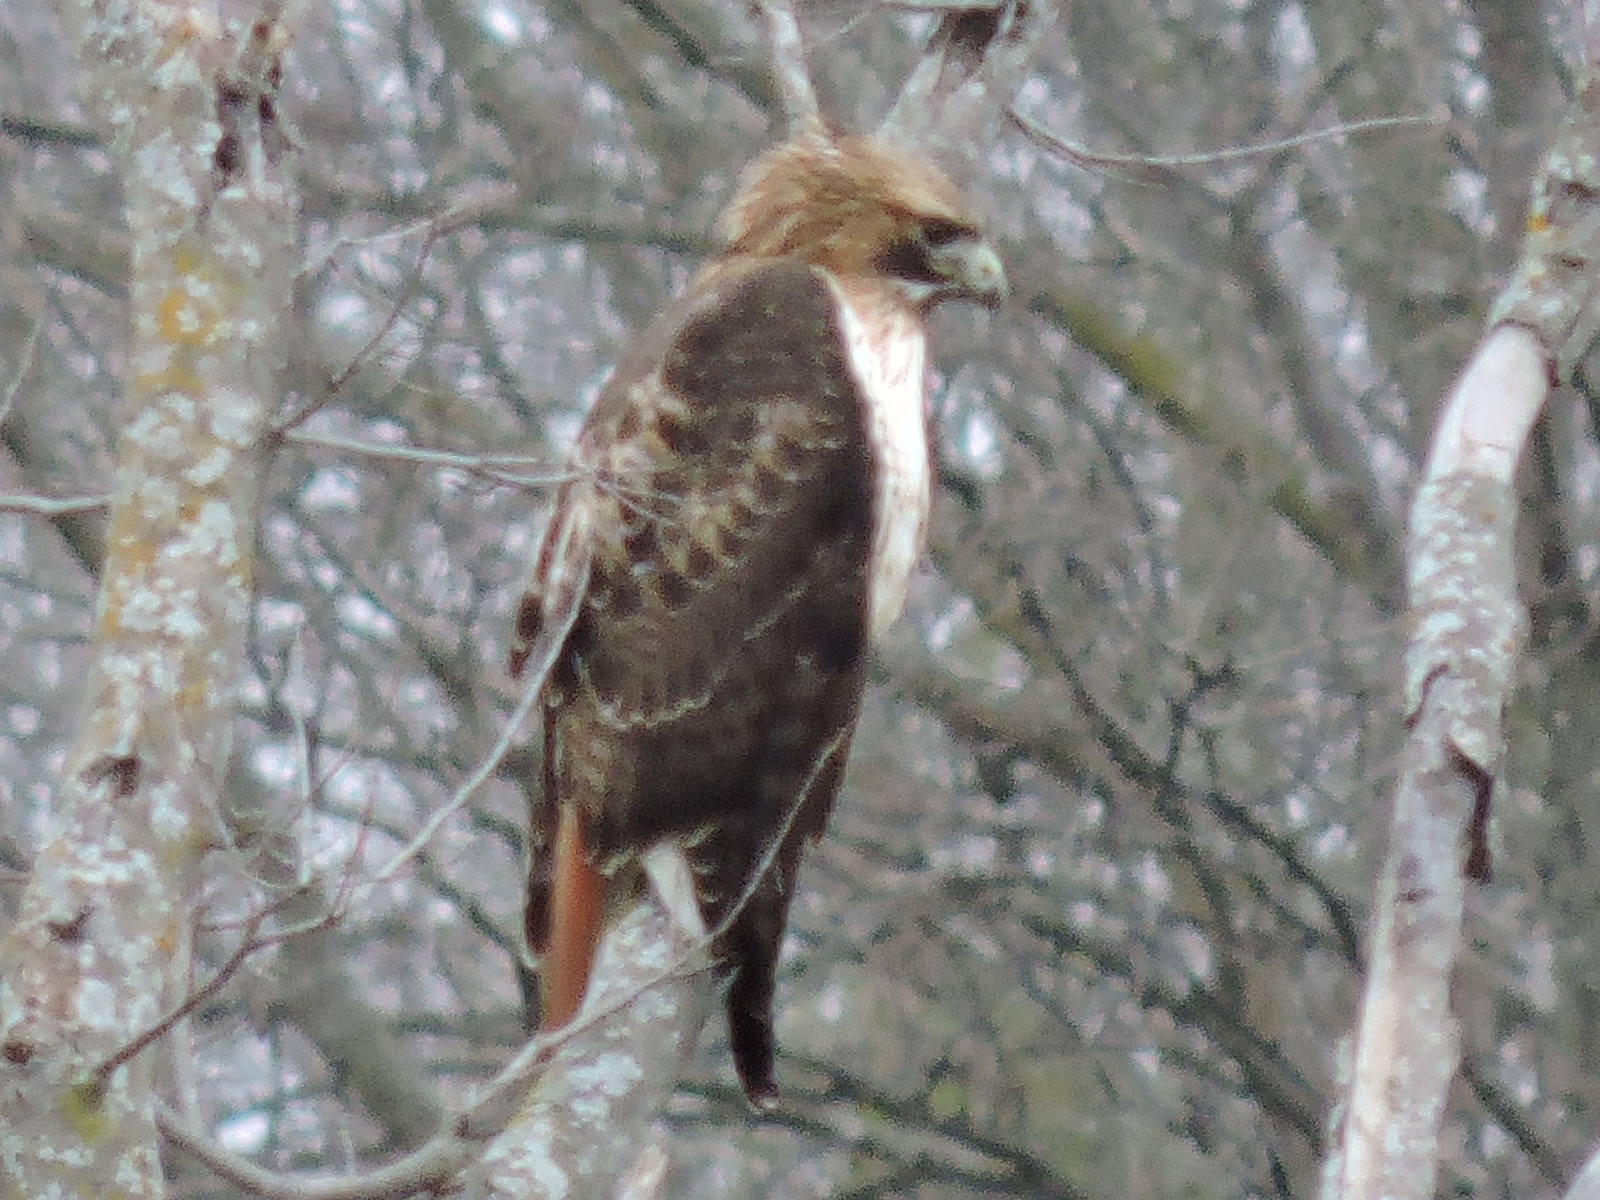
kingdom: Animalia
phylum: Chordata
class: Aves
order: Accipitriformes
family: Accipitridae
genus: Buteo
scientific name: Buteo jamaicensis
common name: Red-tailed hawk
